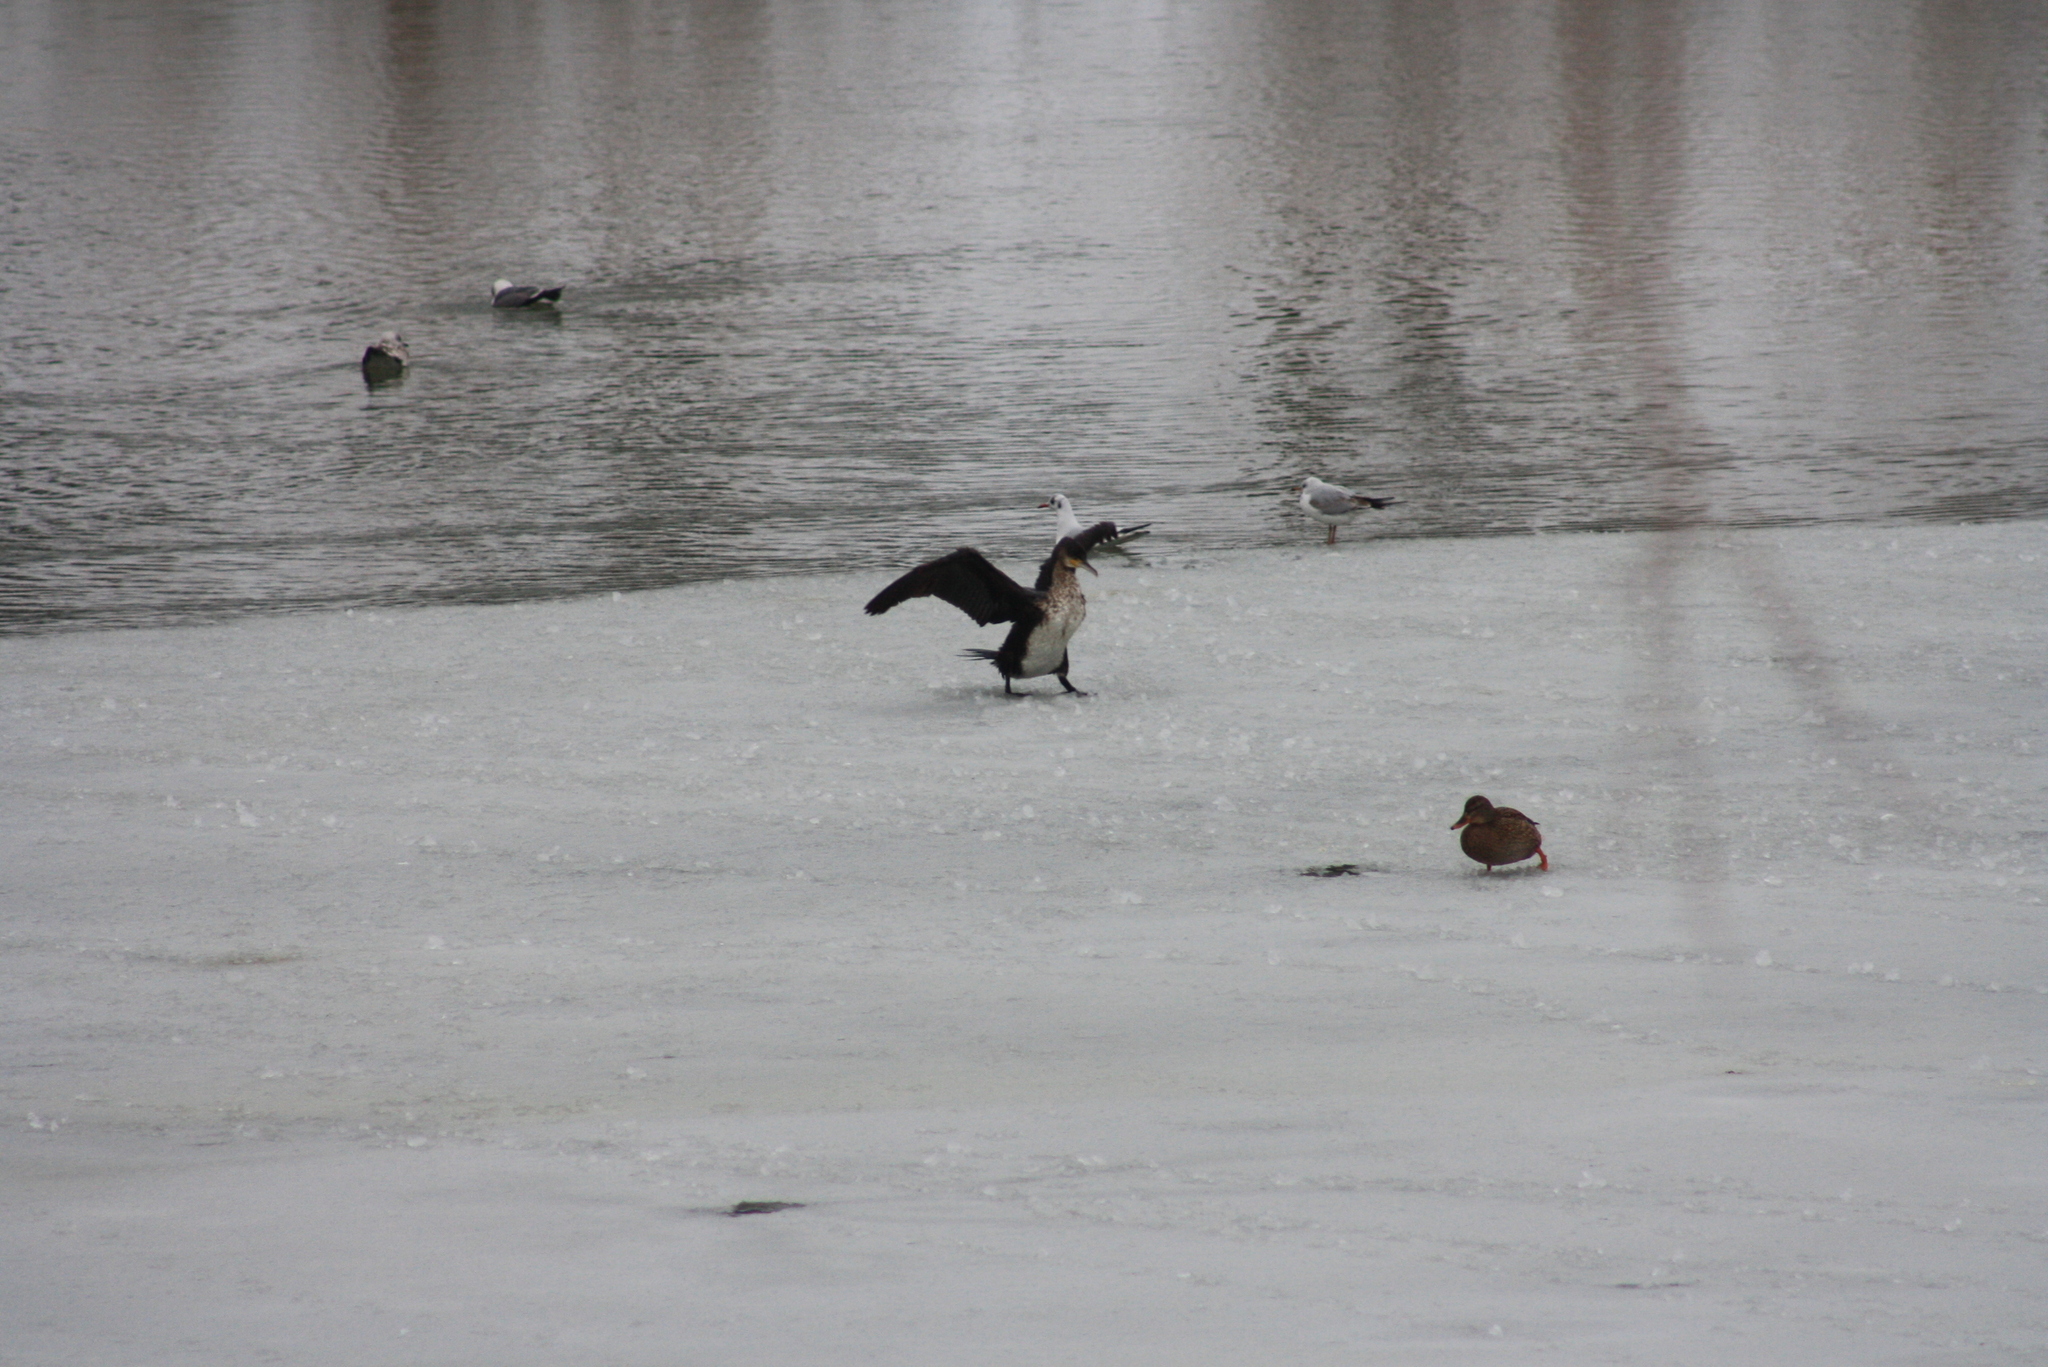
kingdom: Animalia
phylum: Chordata
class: Aves
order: Suliformes
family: Phalacrocoracidae
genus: Phalacrocorax
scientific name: Phalacrocorax carbo
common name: Great cormorant
